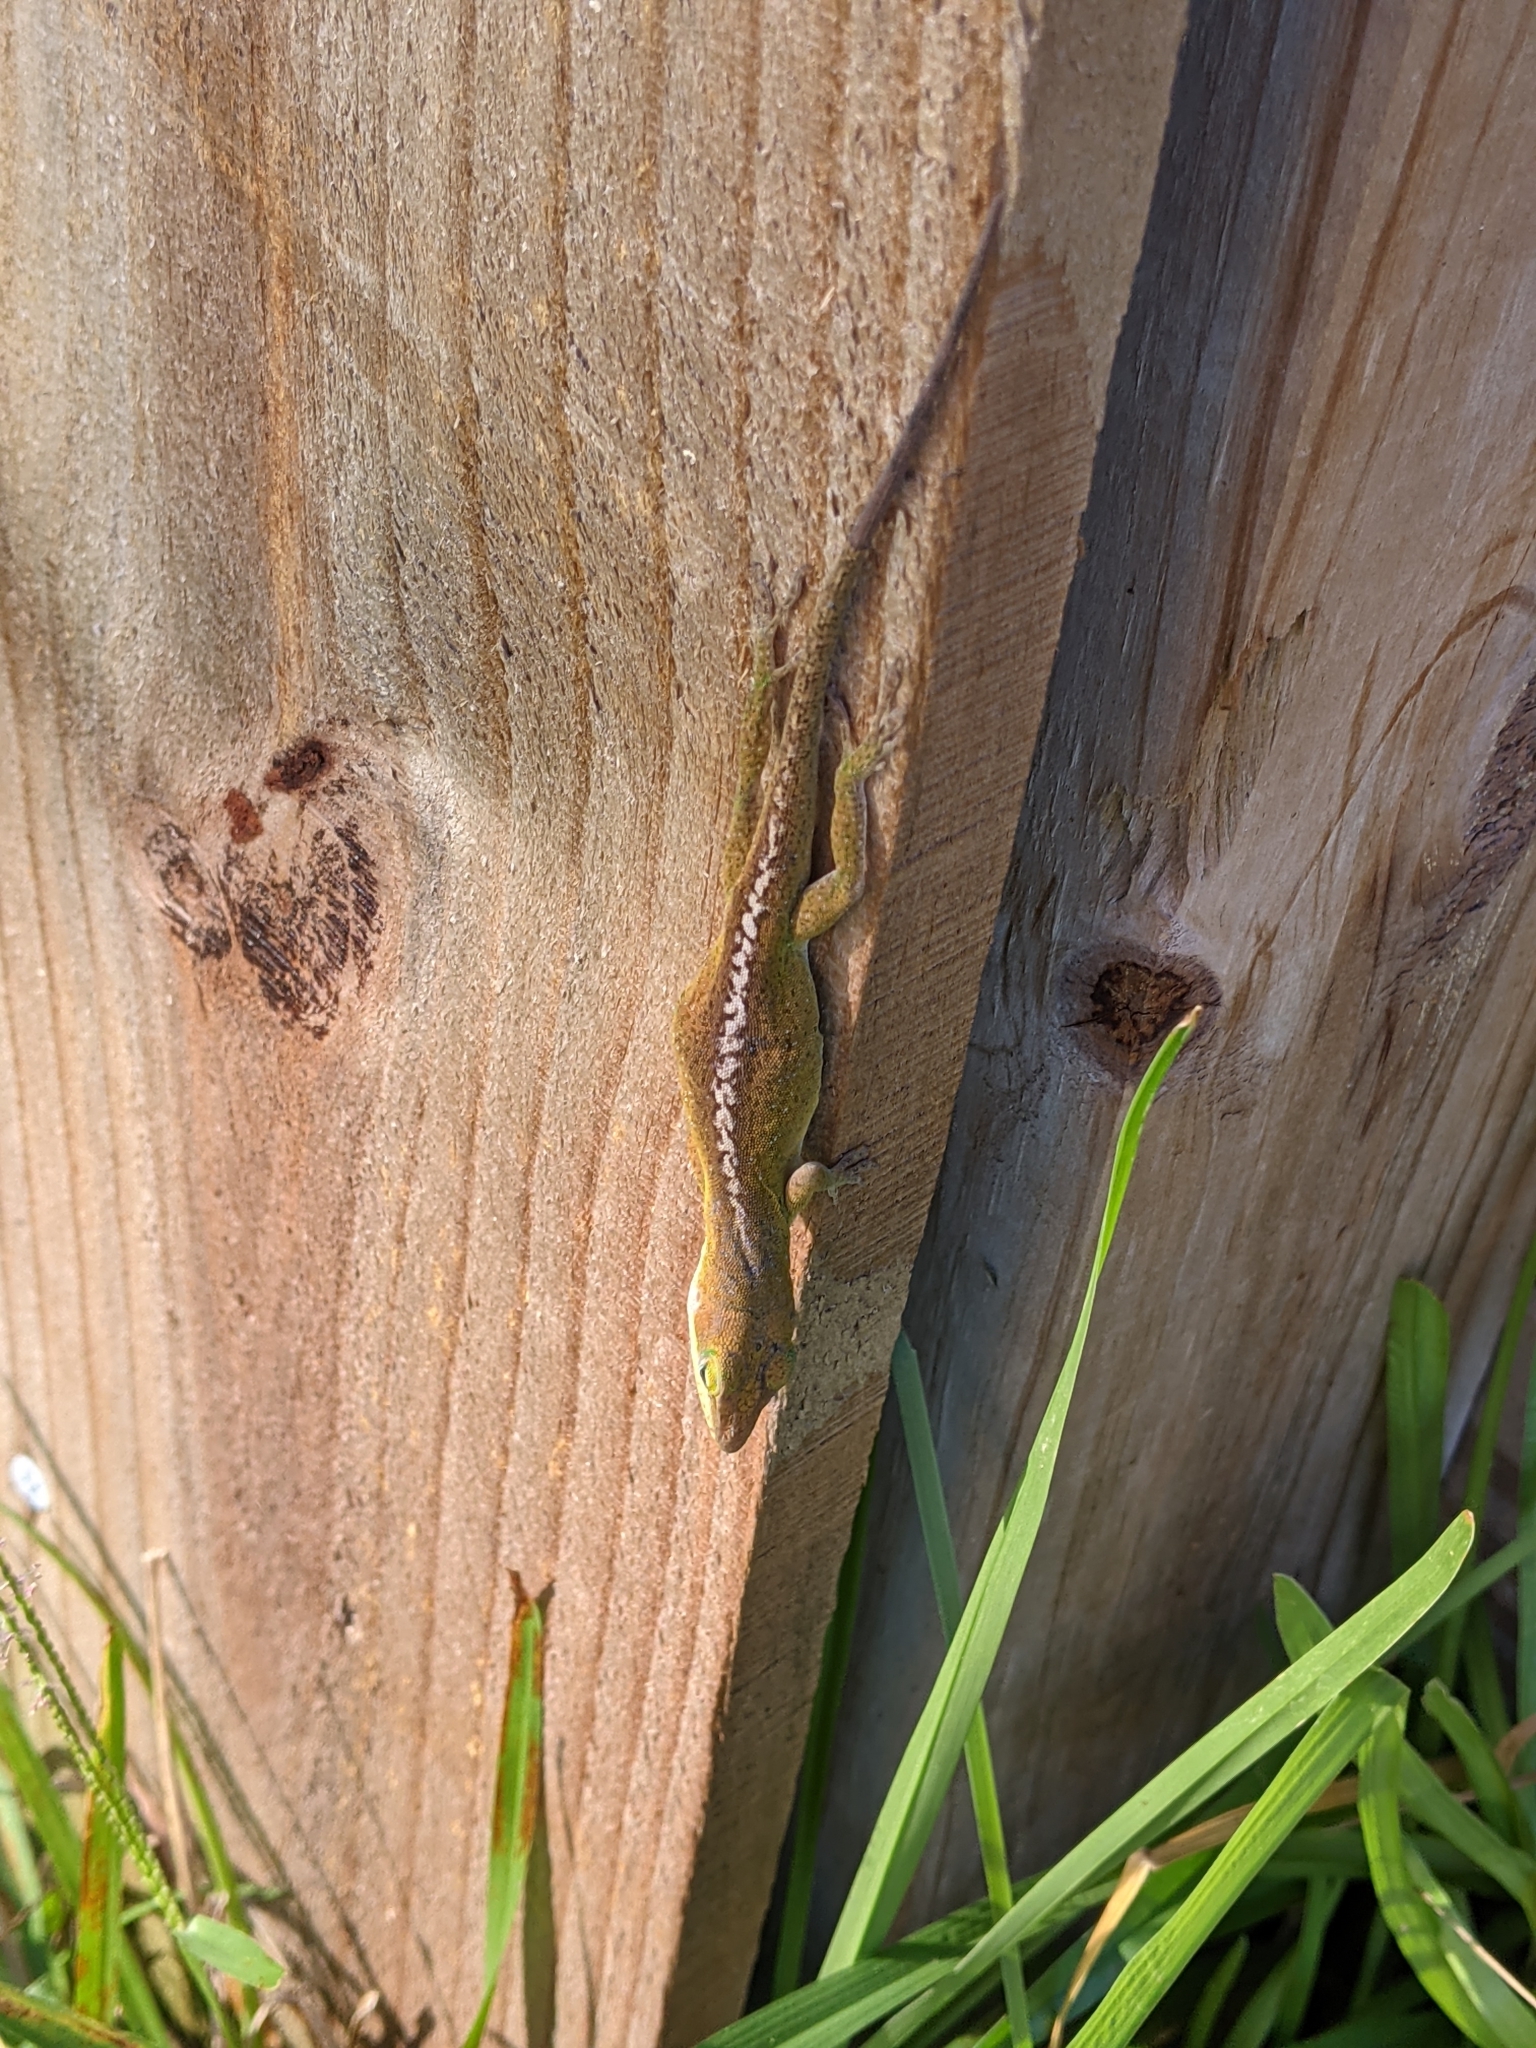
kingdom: Animalia
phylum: Chordata
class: Squamata
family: Dactyloidae
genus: Anolis
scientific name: Anolis carolinensis
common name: Green anole
